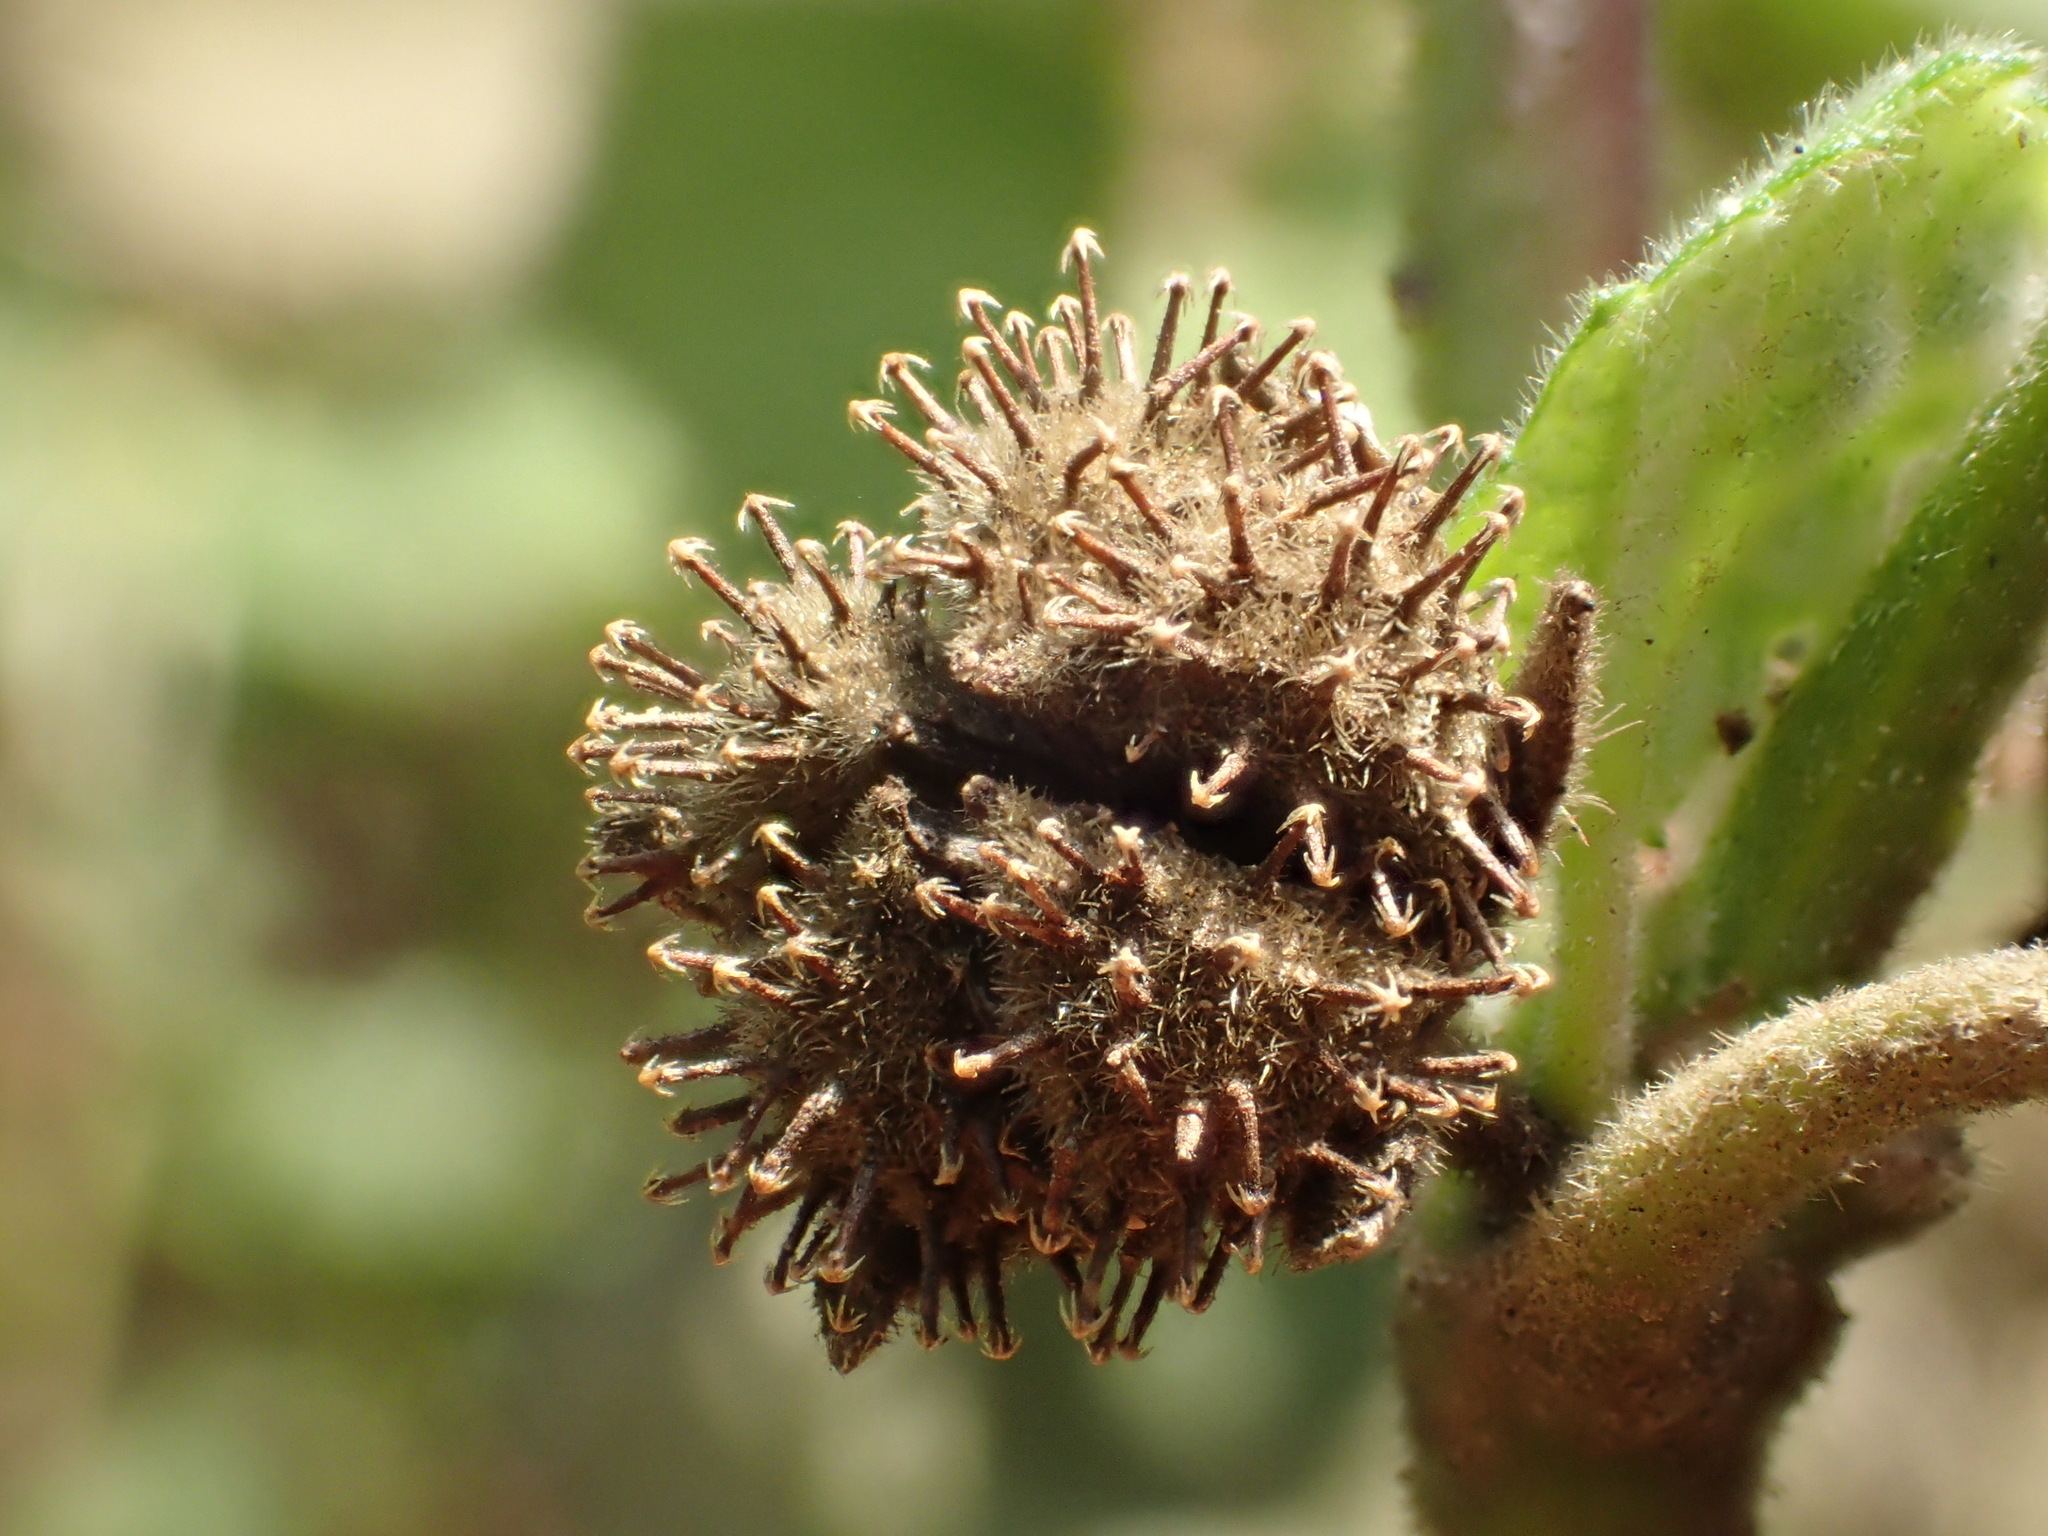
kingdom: Plantae
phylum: Tracheophyta
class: Magnoliopsida
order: Malvales
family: Malvaceae
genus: Urena
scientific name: Urena lobata
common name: Caesarweed
